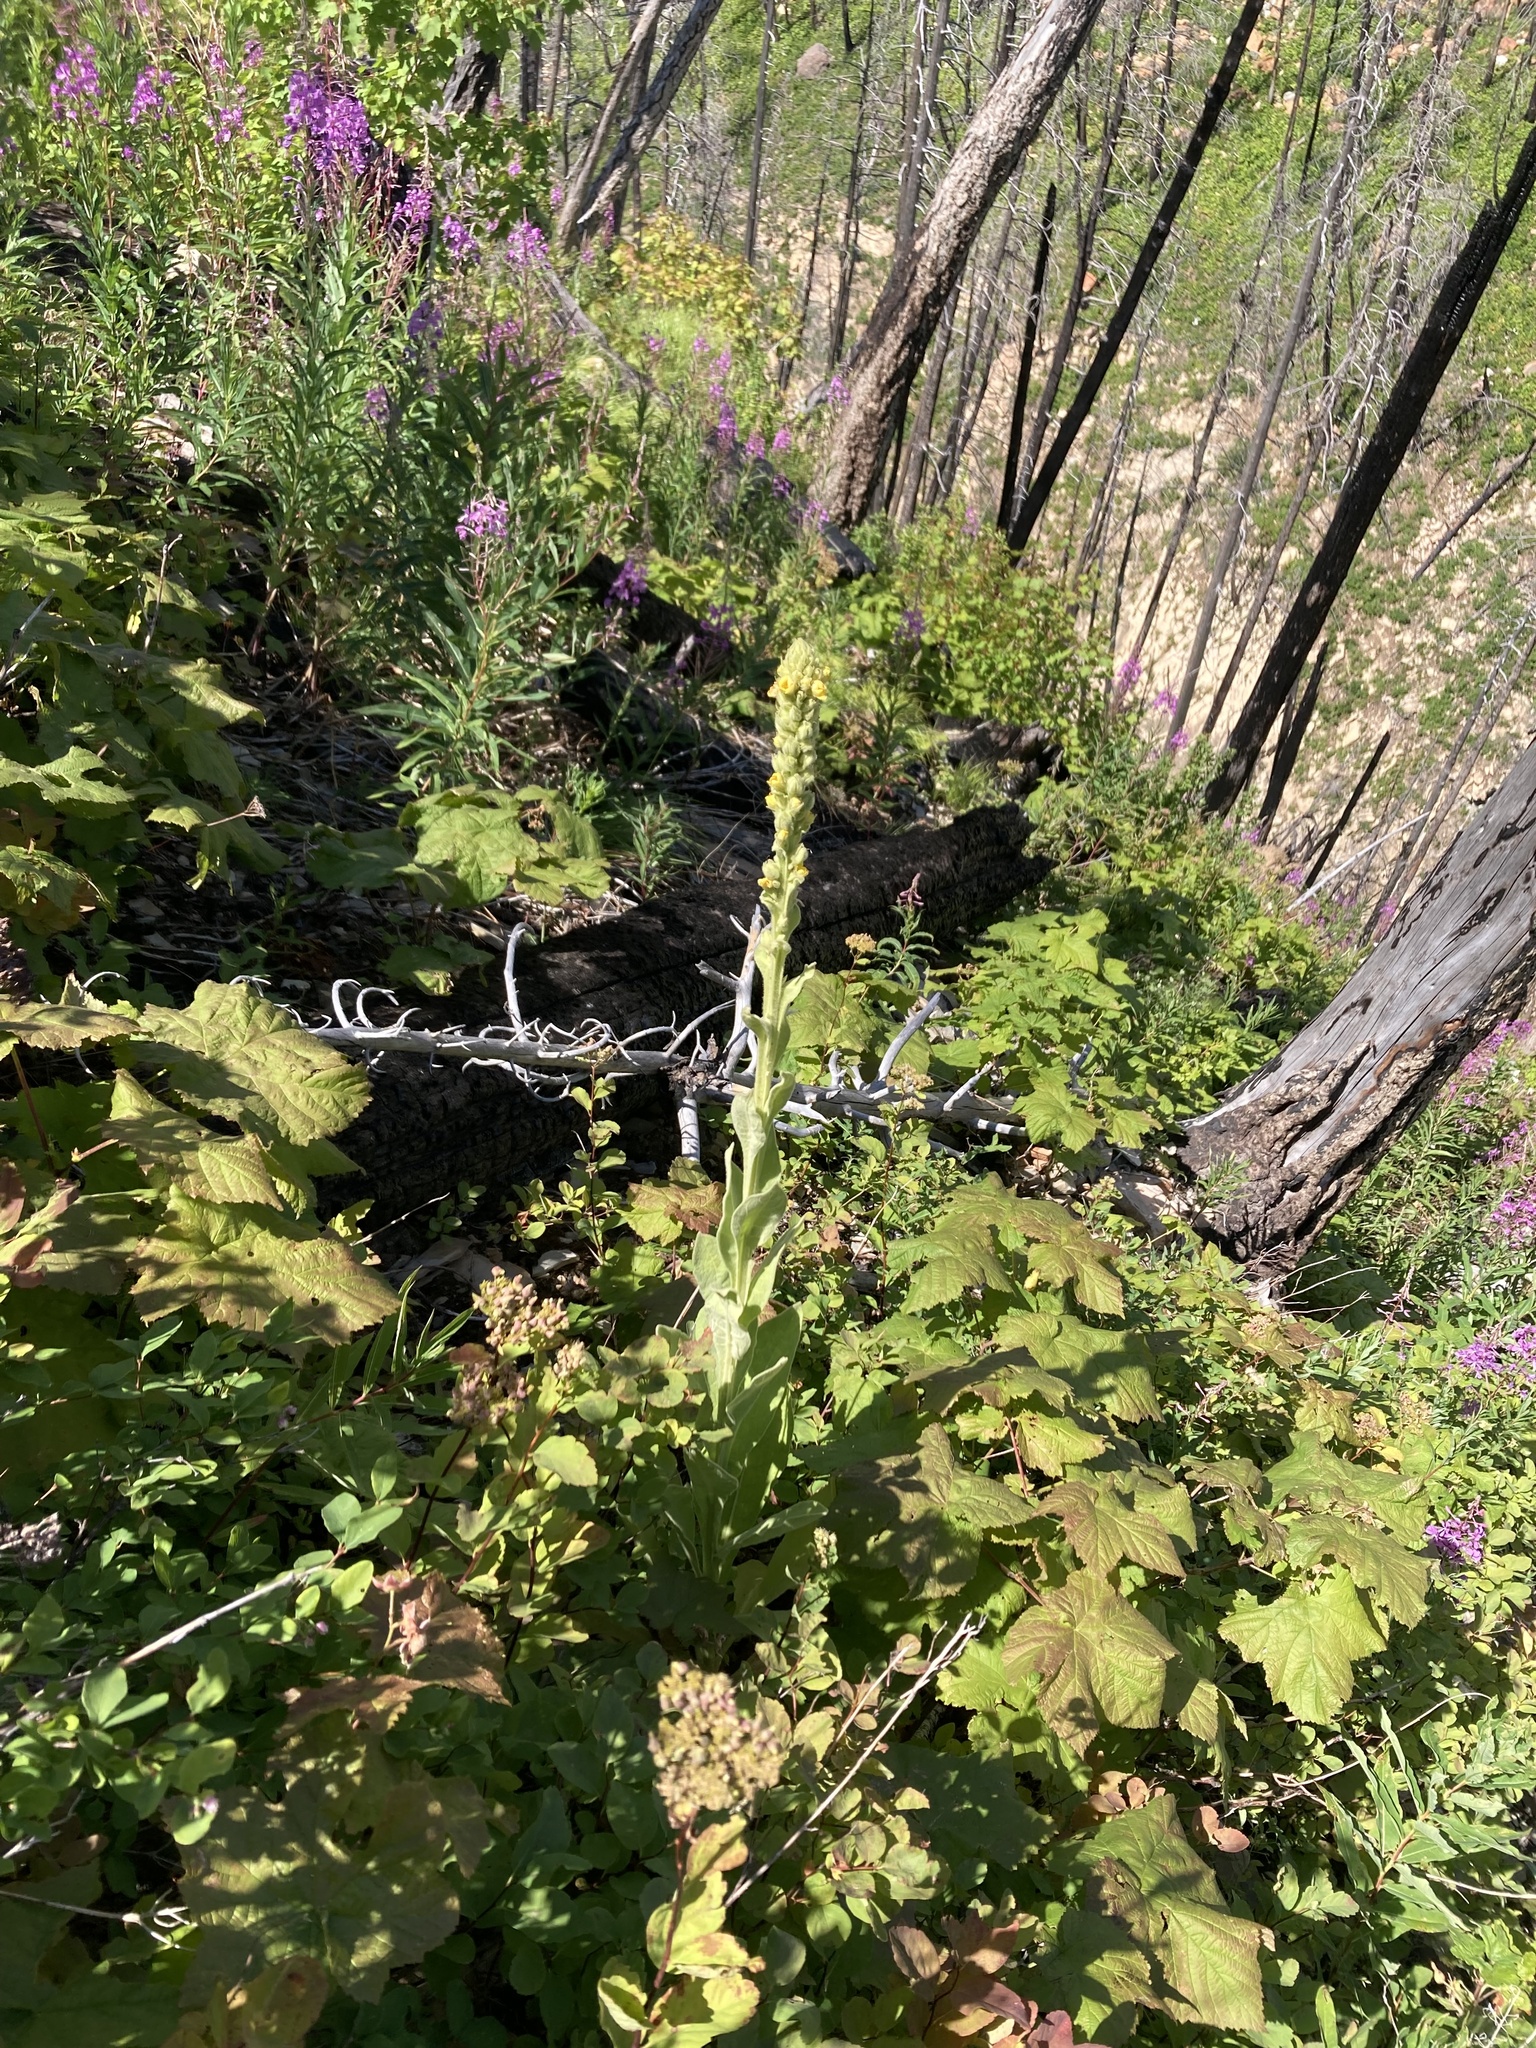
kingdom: Plantae
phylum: Tracheophyta
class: Magnoliopsida
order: Lamiales
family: Scrophulariaceae
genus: Verbascum
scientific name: Verbascum thapsus
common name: Common mullein
